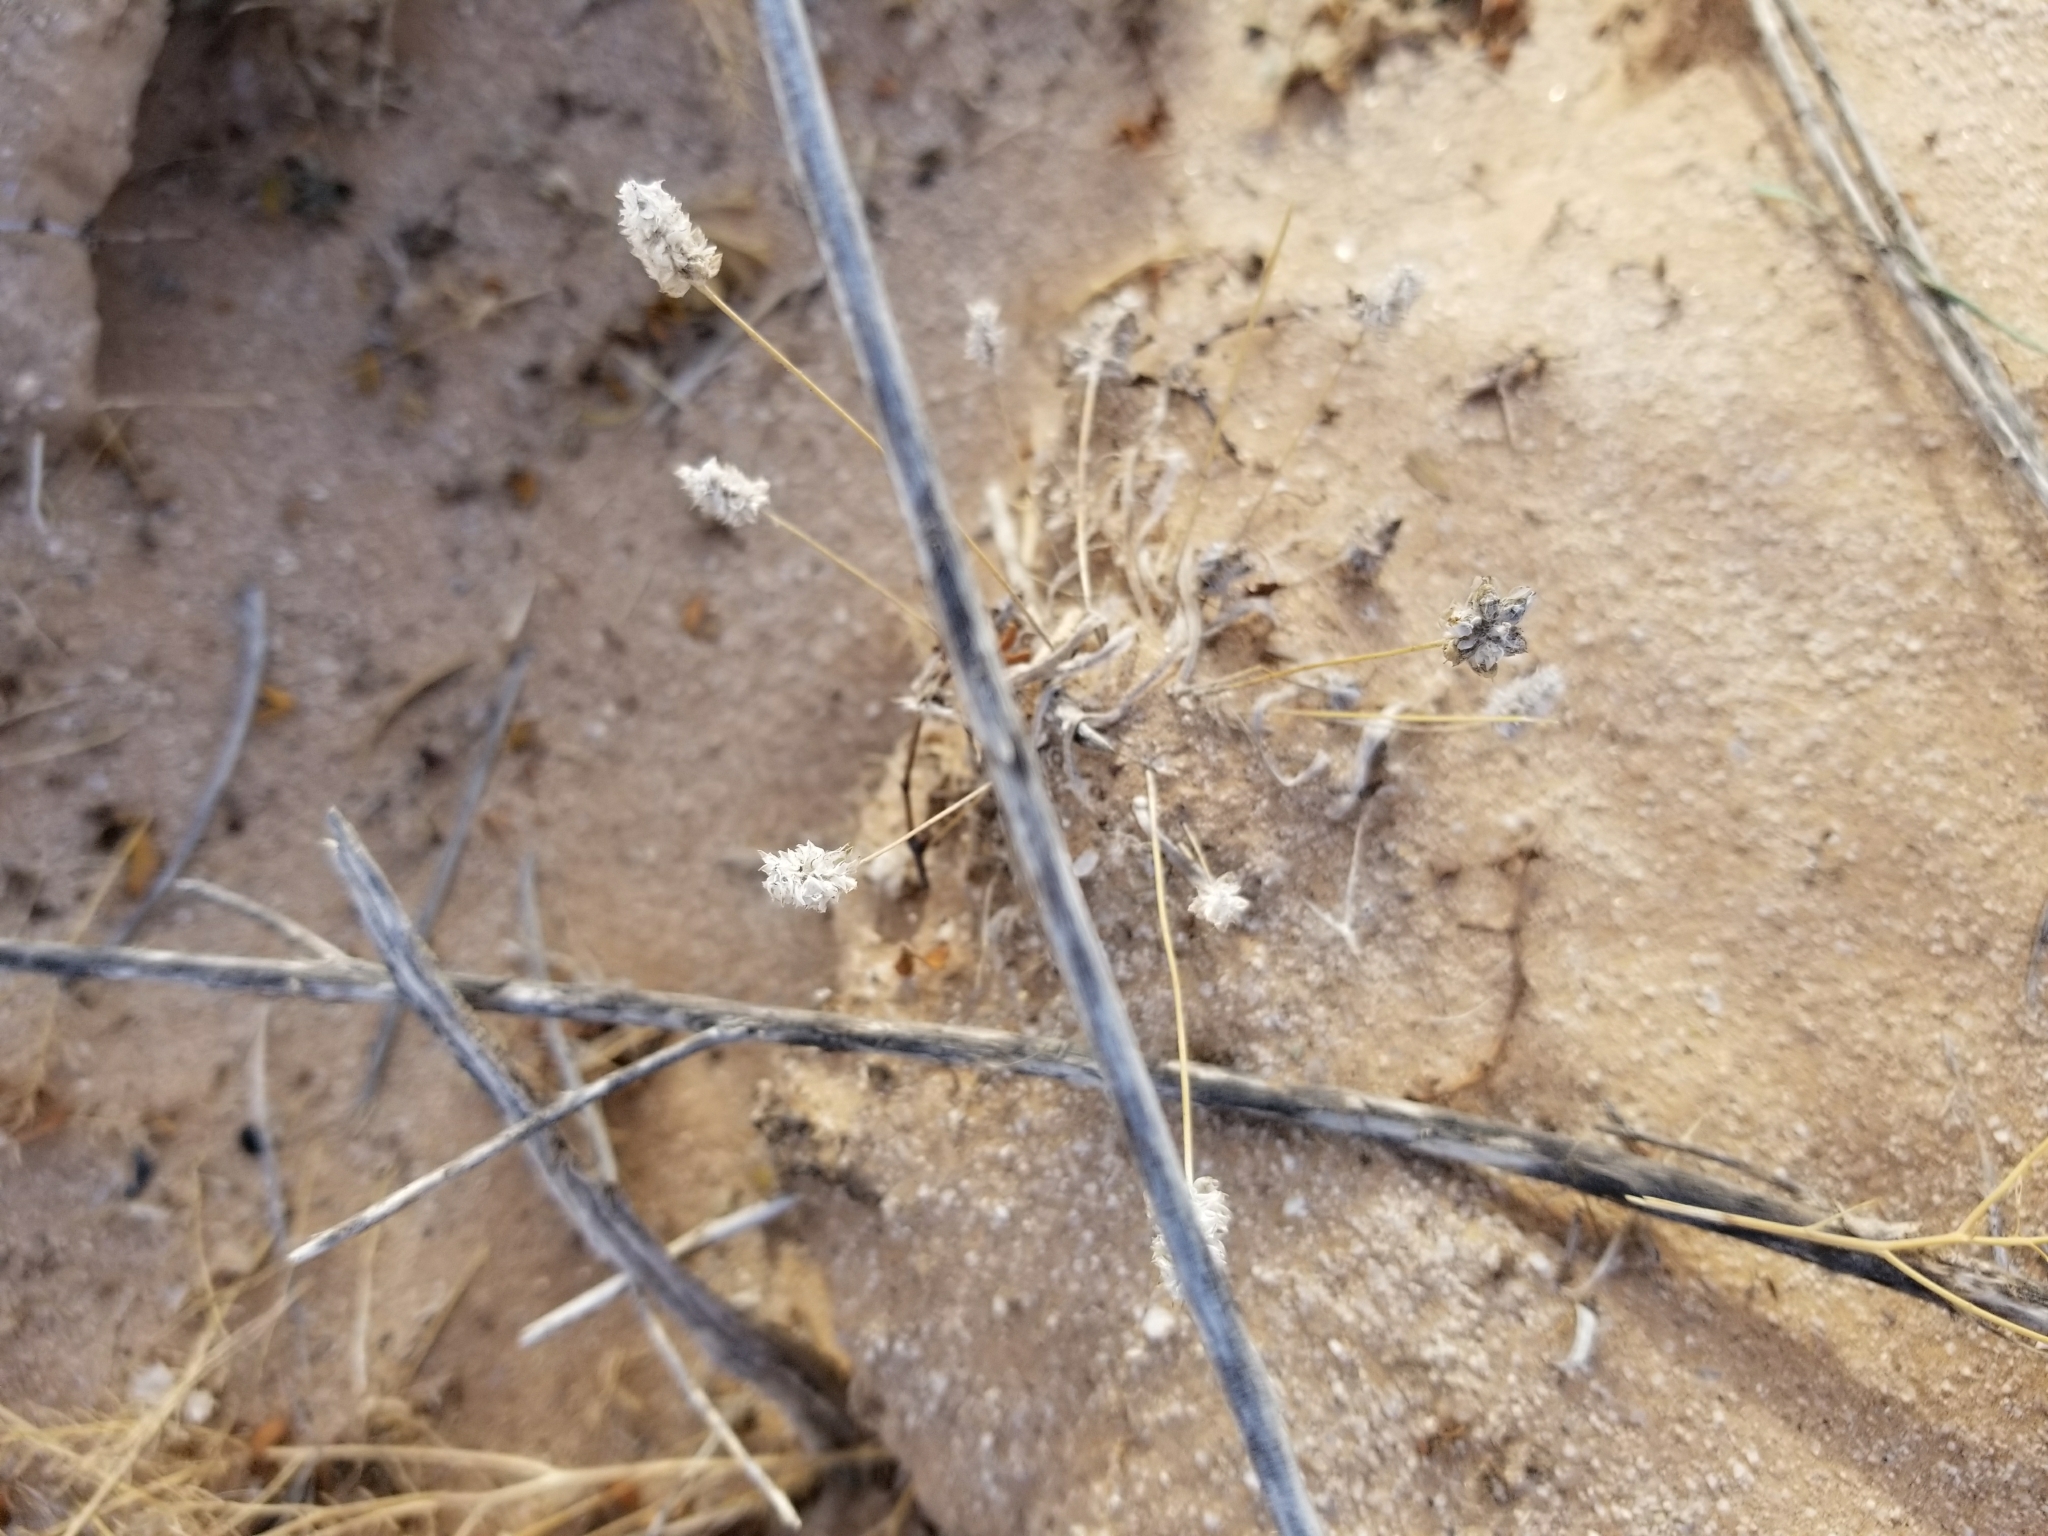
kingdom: Plantae
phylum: Tracheophyta
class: Magnoliopsida
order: Lamiales
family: Plantaginaceae
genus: Plantago
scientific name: Plantago ovata
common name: Blond plantain
